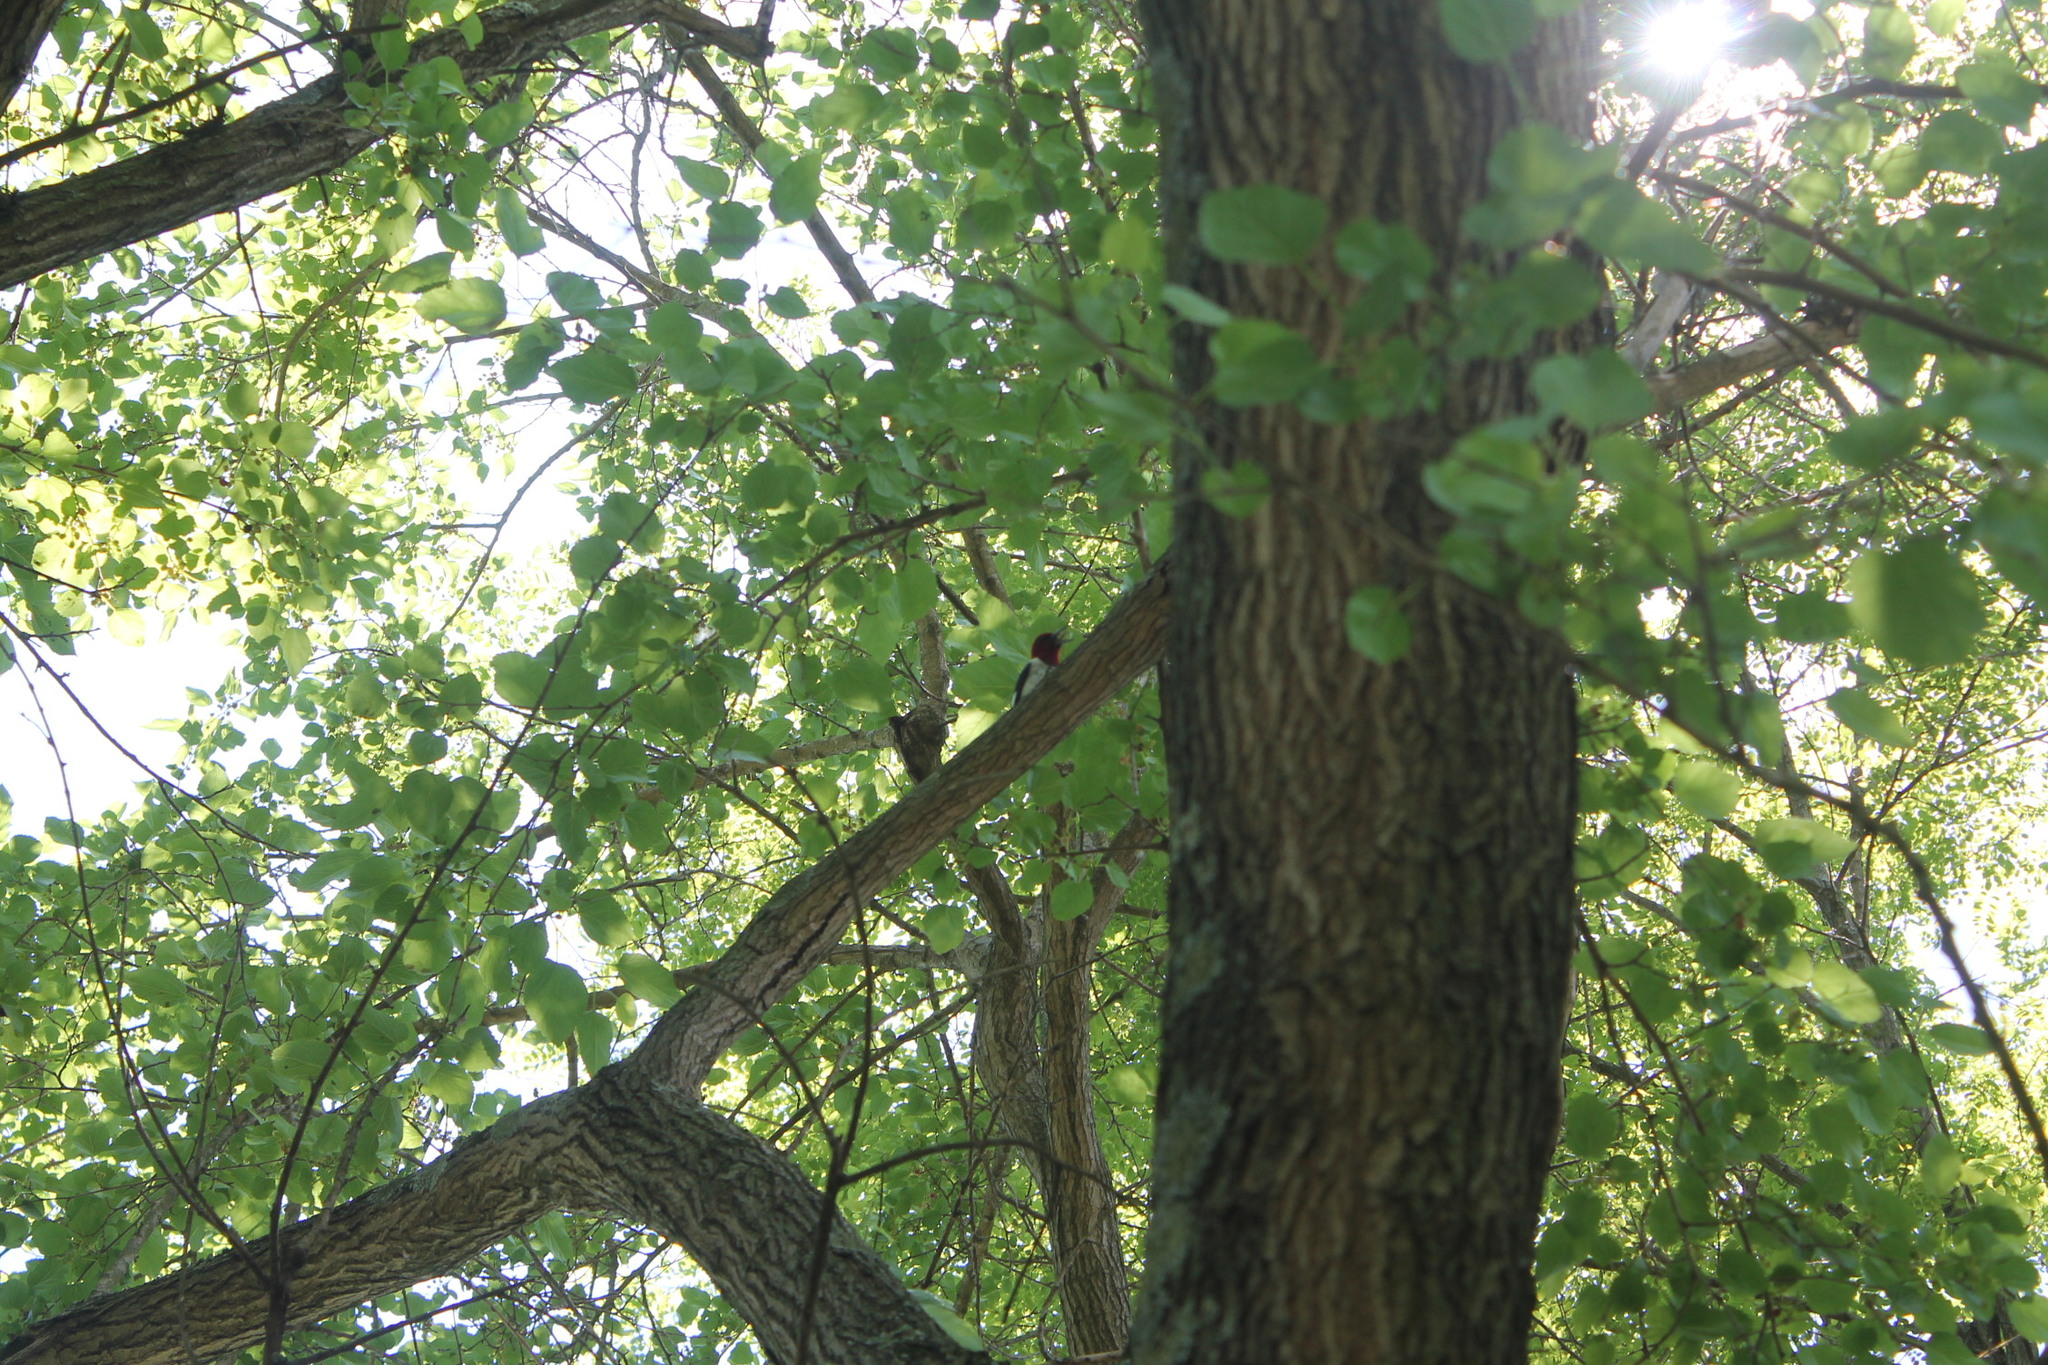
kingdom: Animalia
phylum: Chordata
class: Aves
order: Piciformes
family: Picidae
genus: Melanerpes
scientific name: Melanerpes erythrocephalus
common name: Red-headed woodpecker
